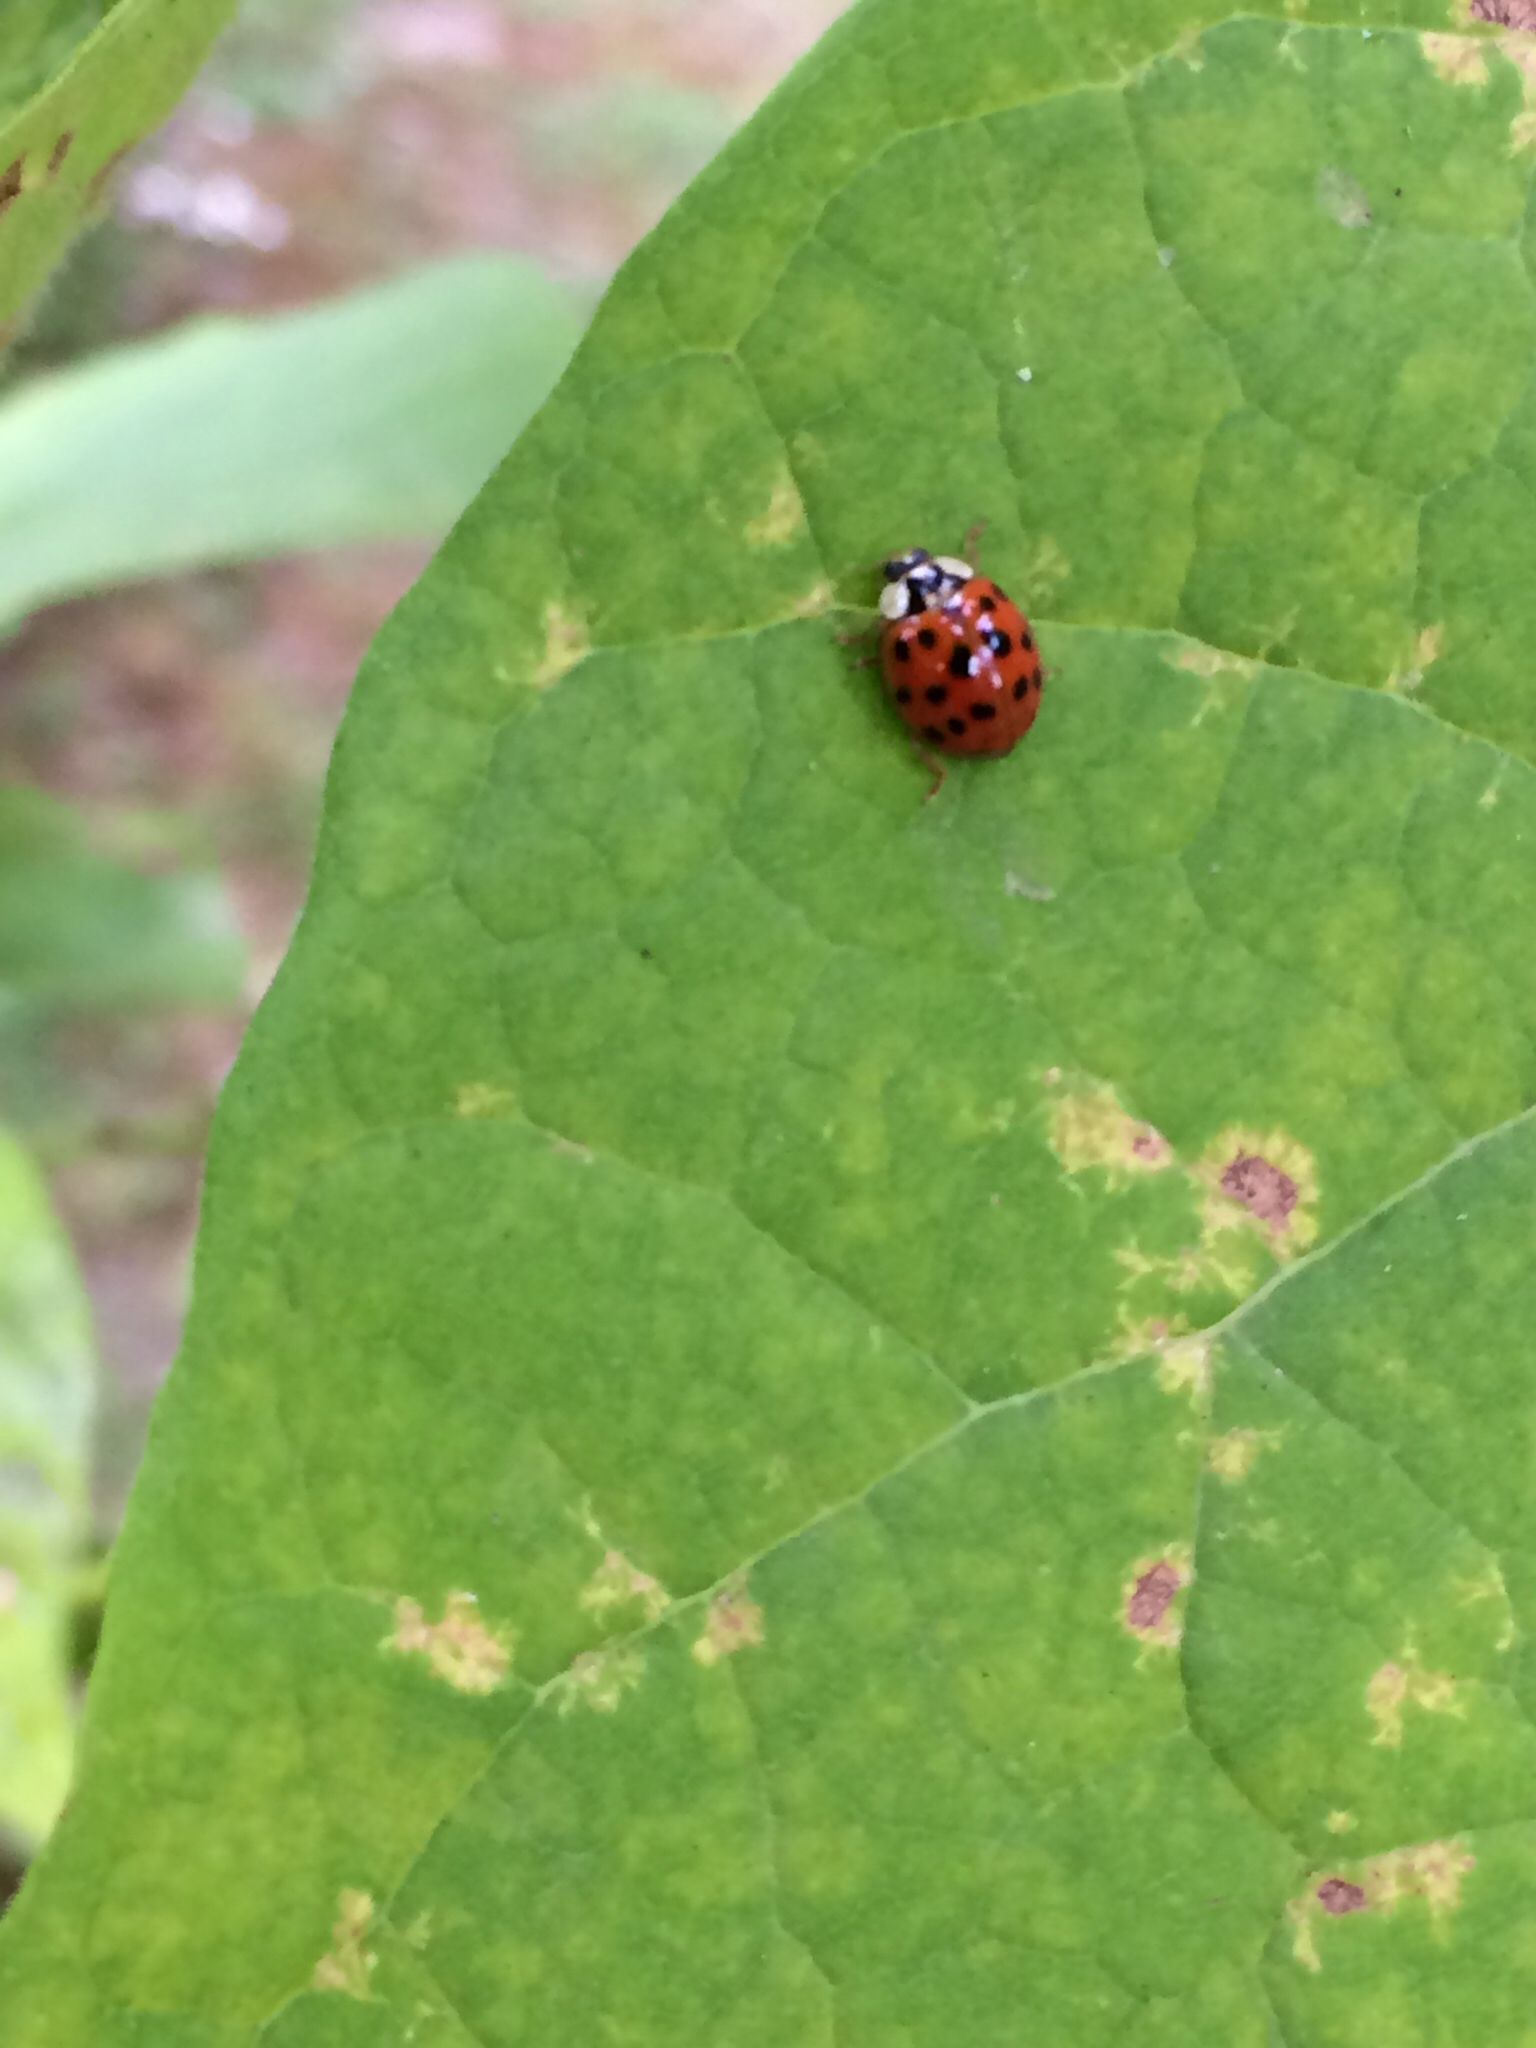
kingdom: Animalia
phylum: Arthropoda
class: Insecta
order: Coleoptera
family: Coccinellidae
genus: Harmonia
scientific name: Harmonia axyridis
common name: Harlequin ladybird
